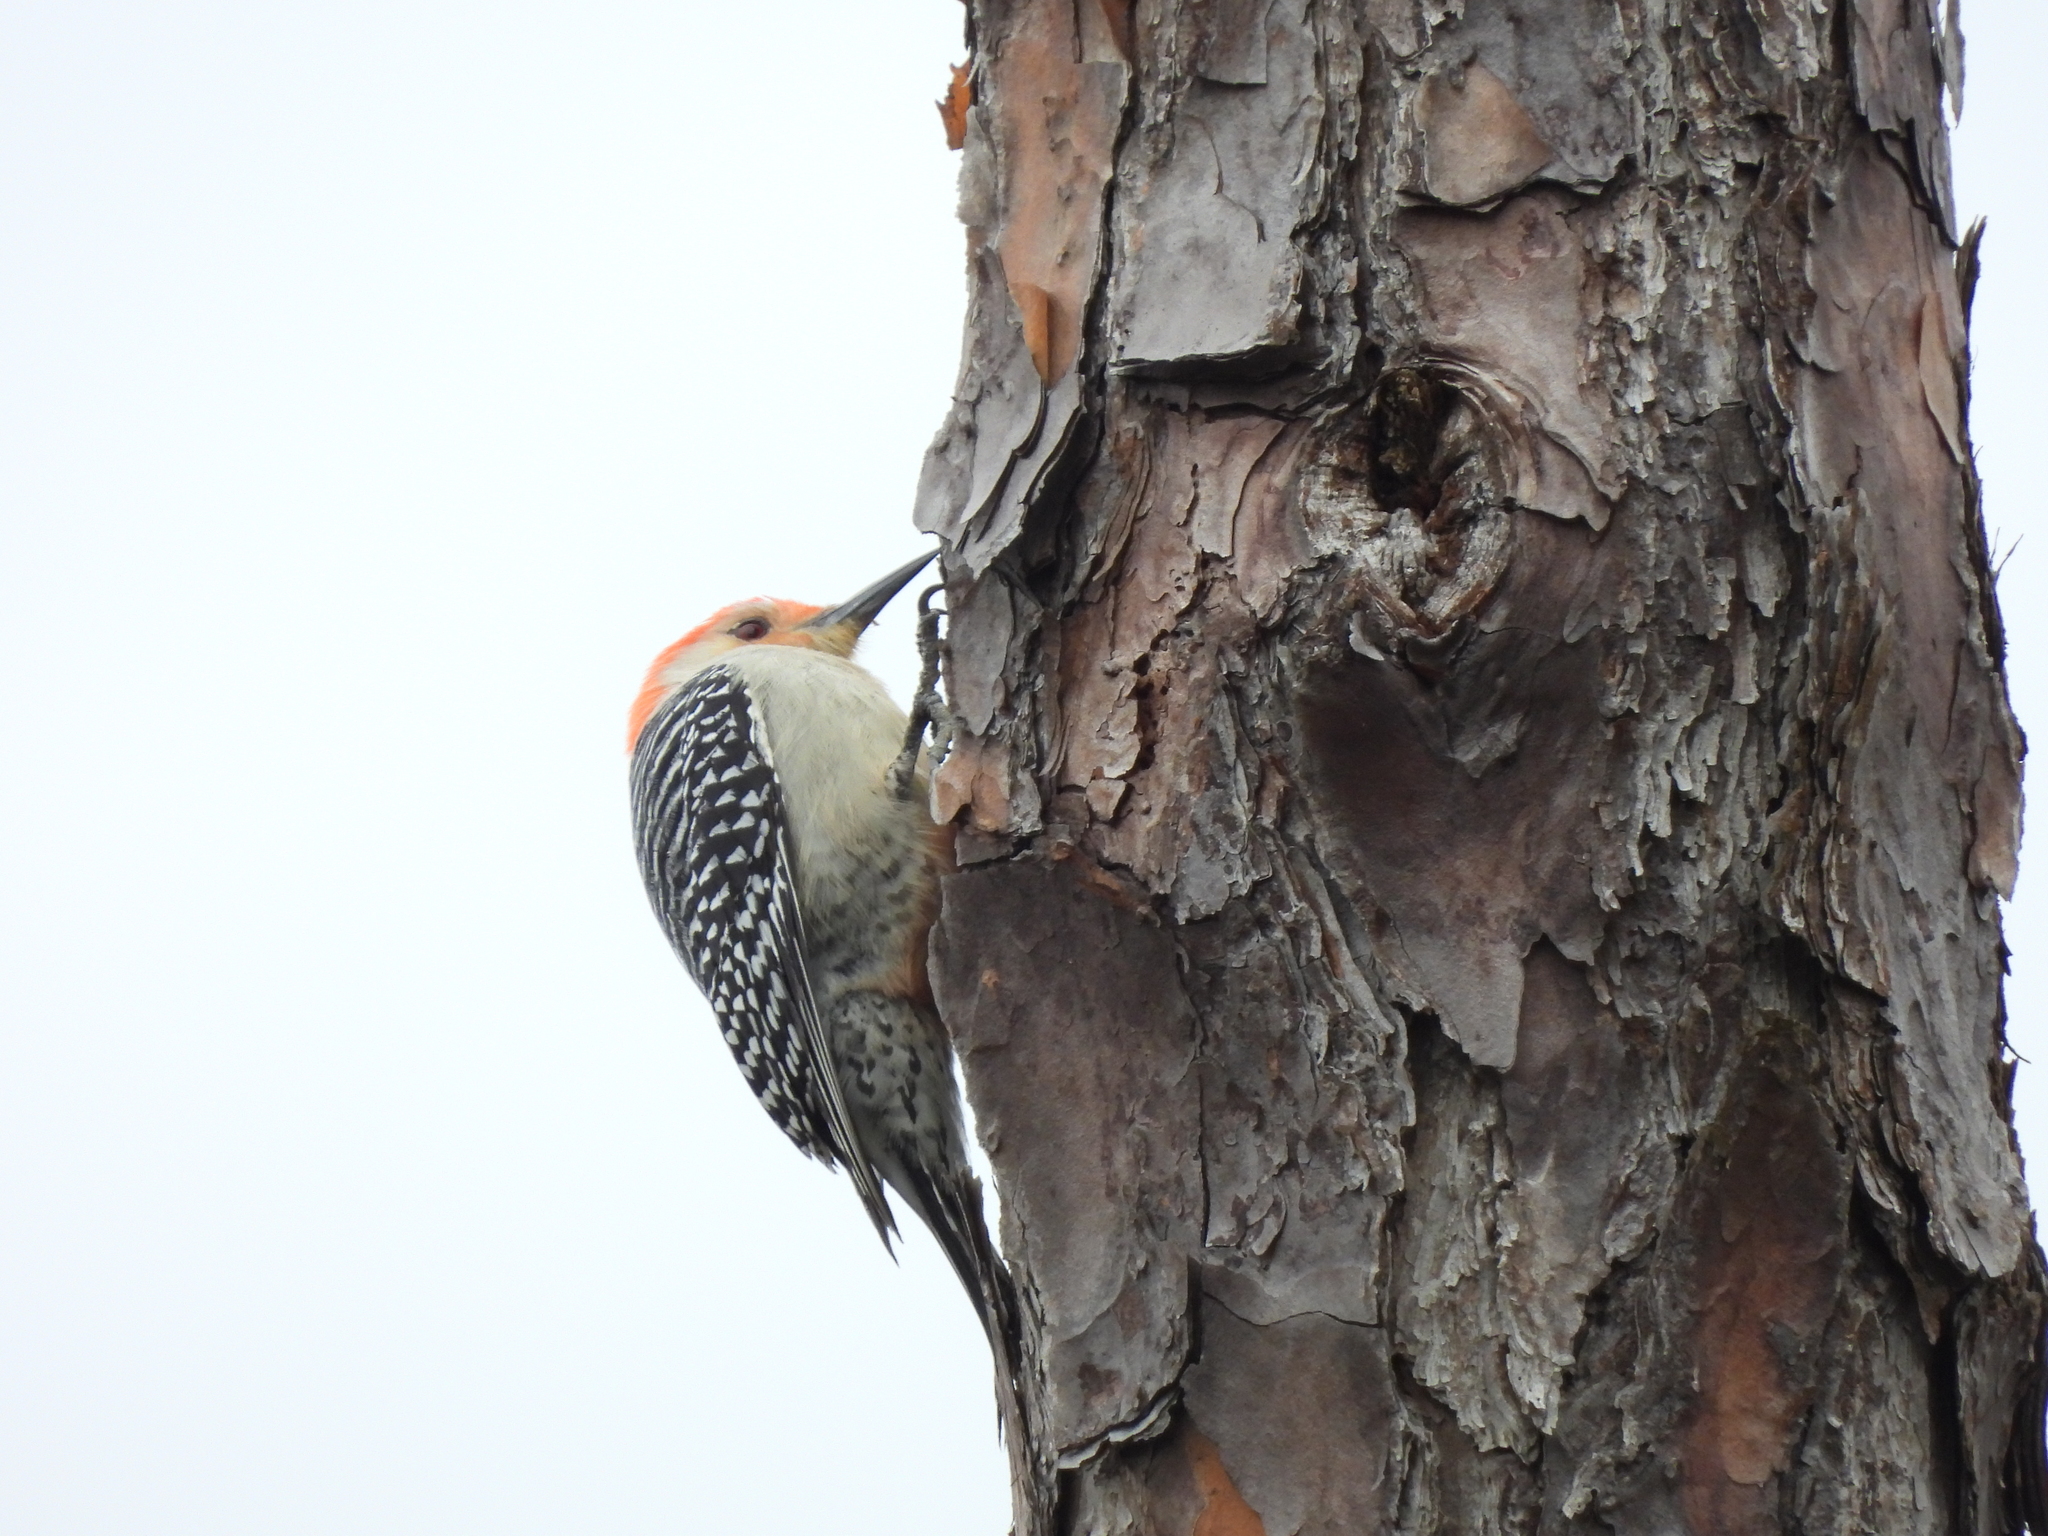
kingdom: Animalia
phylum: Chordata
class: Aves
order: Piciformes
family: Picidae
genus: Melanerpes
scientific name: Melanerpes carolinus
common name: Red-bellied woodpecker
